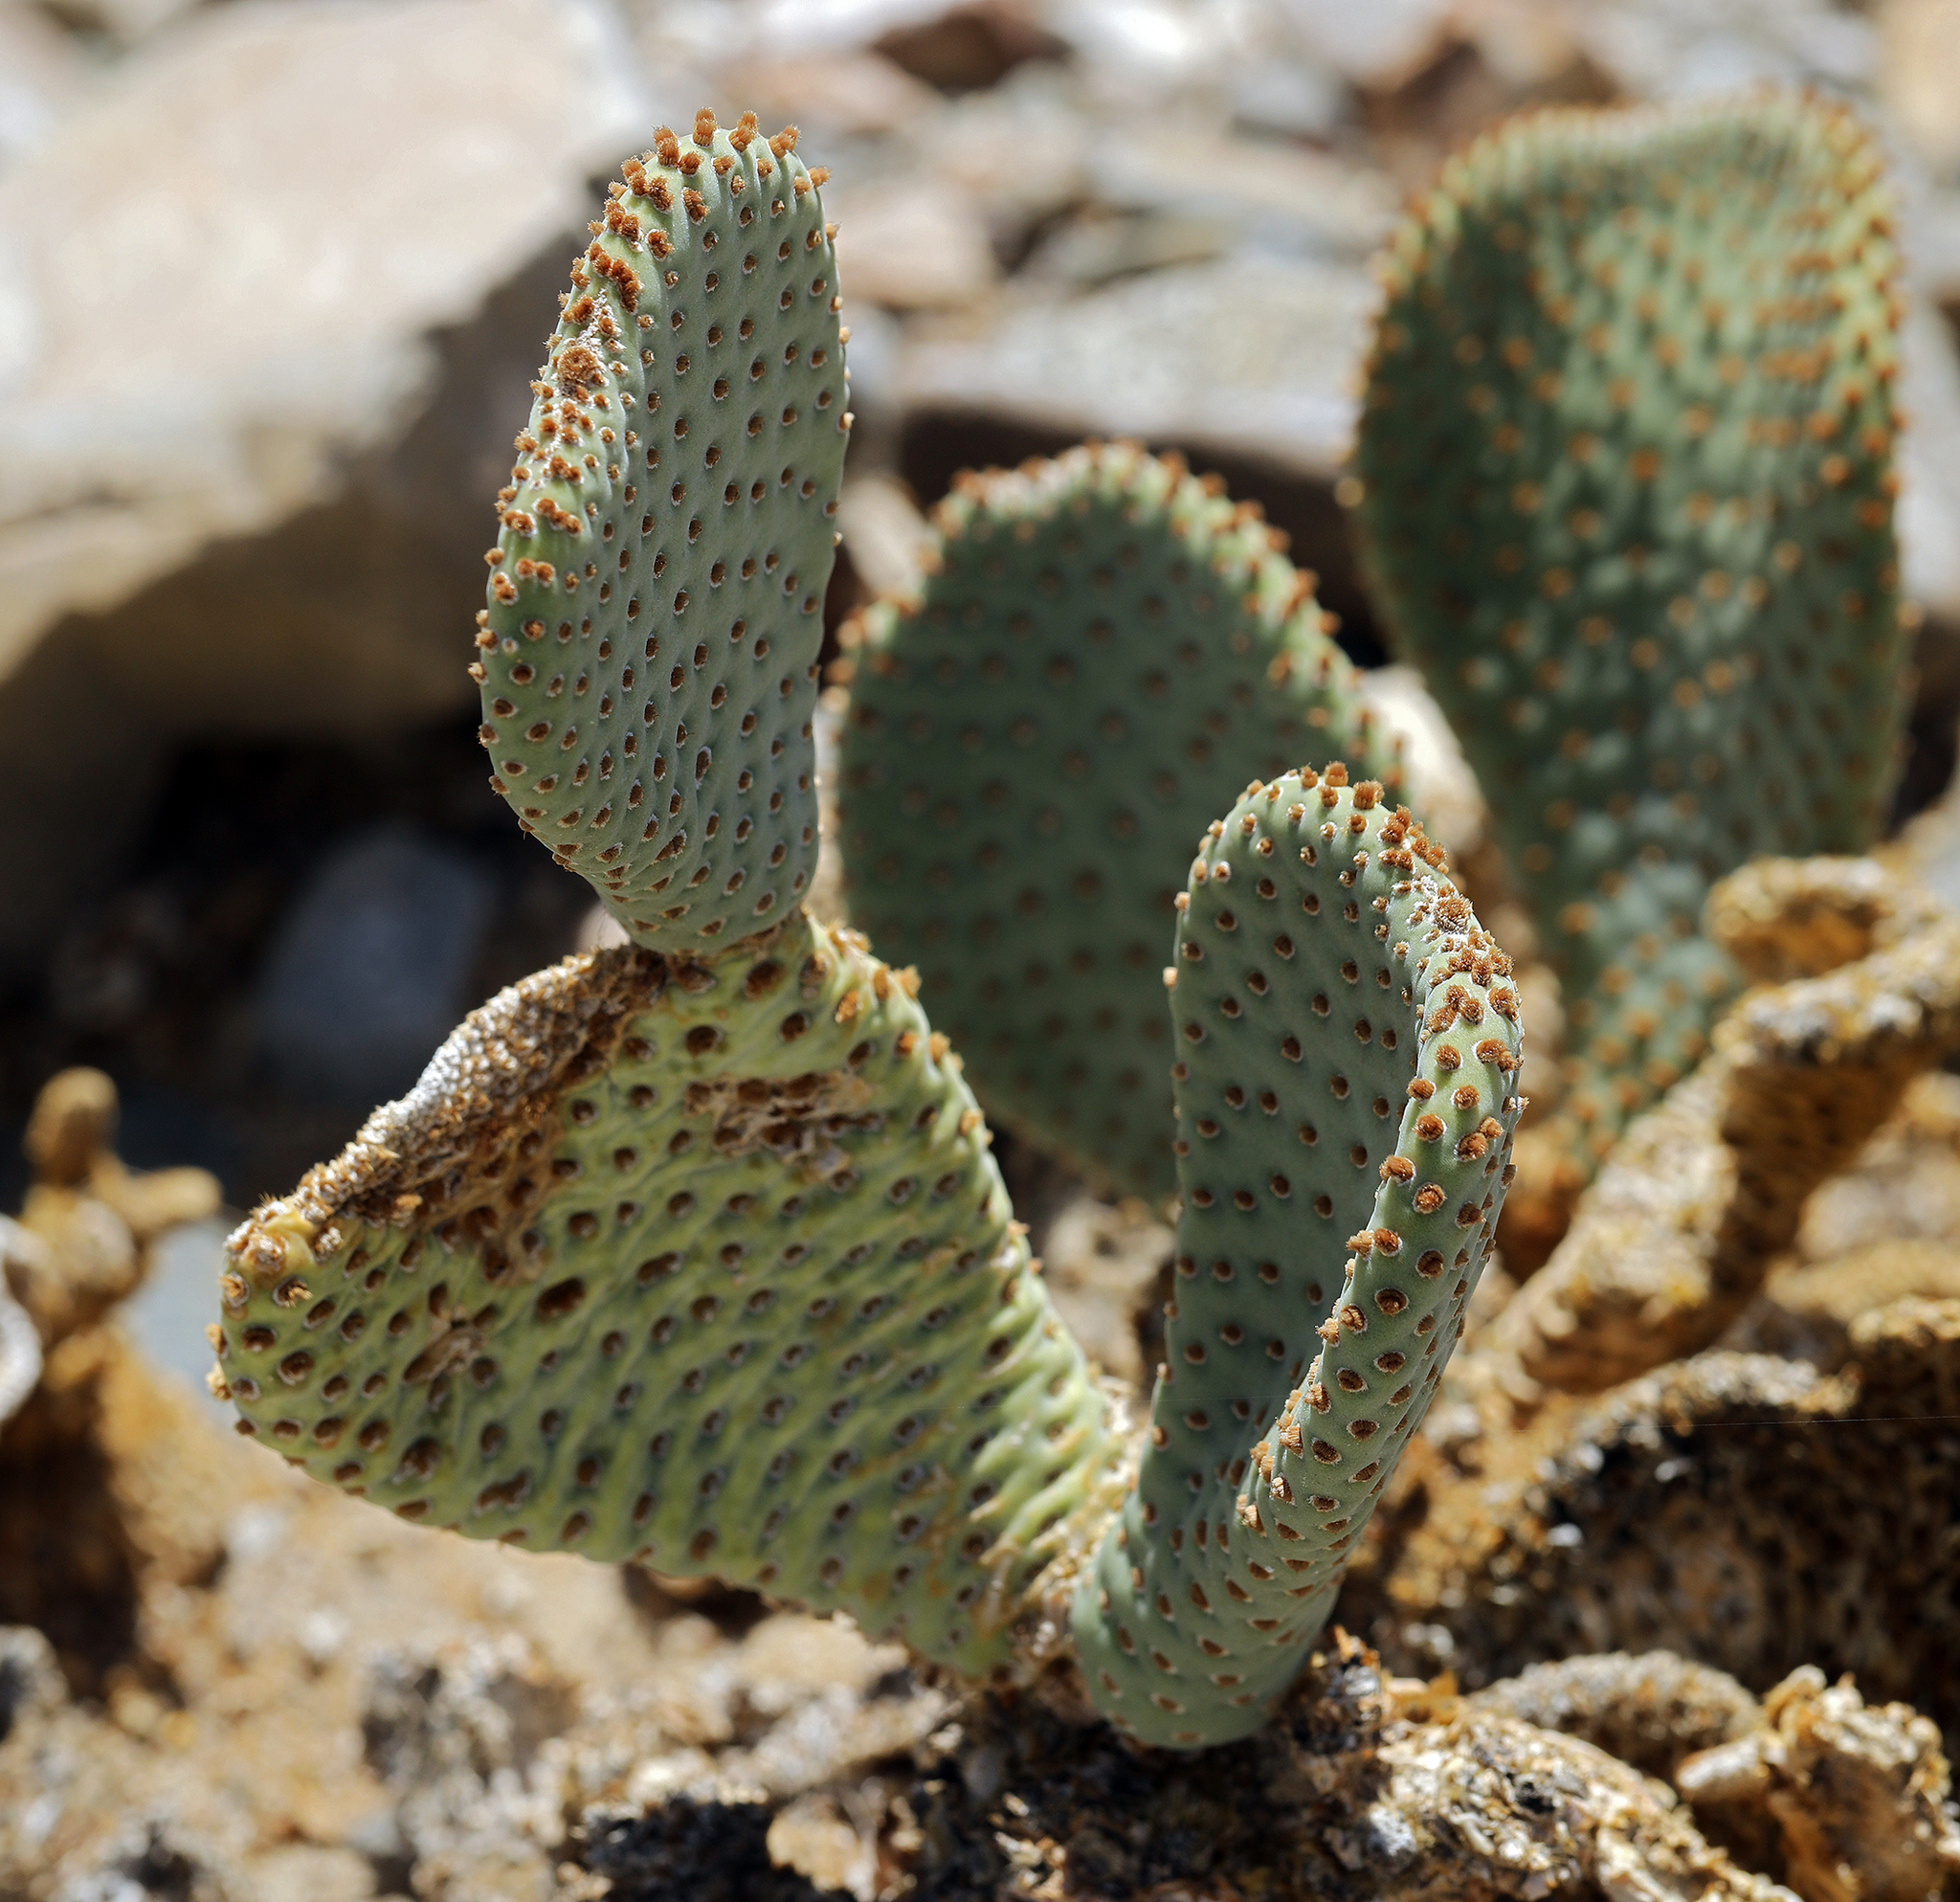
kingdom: Plantae
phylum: Tracheophyta
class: Magnoliopsida
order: Caryophyllales
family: Cactaceae
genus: Opuntia
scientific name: Opuntia basilaris
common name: Beavertail prickly-pear
